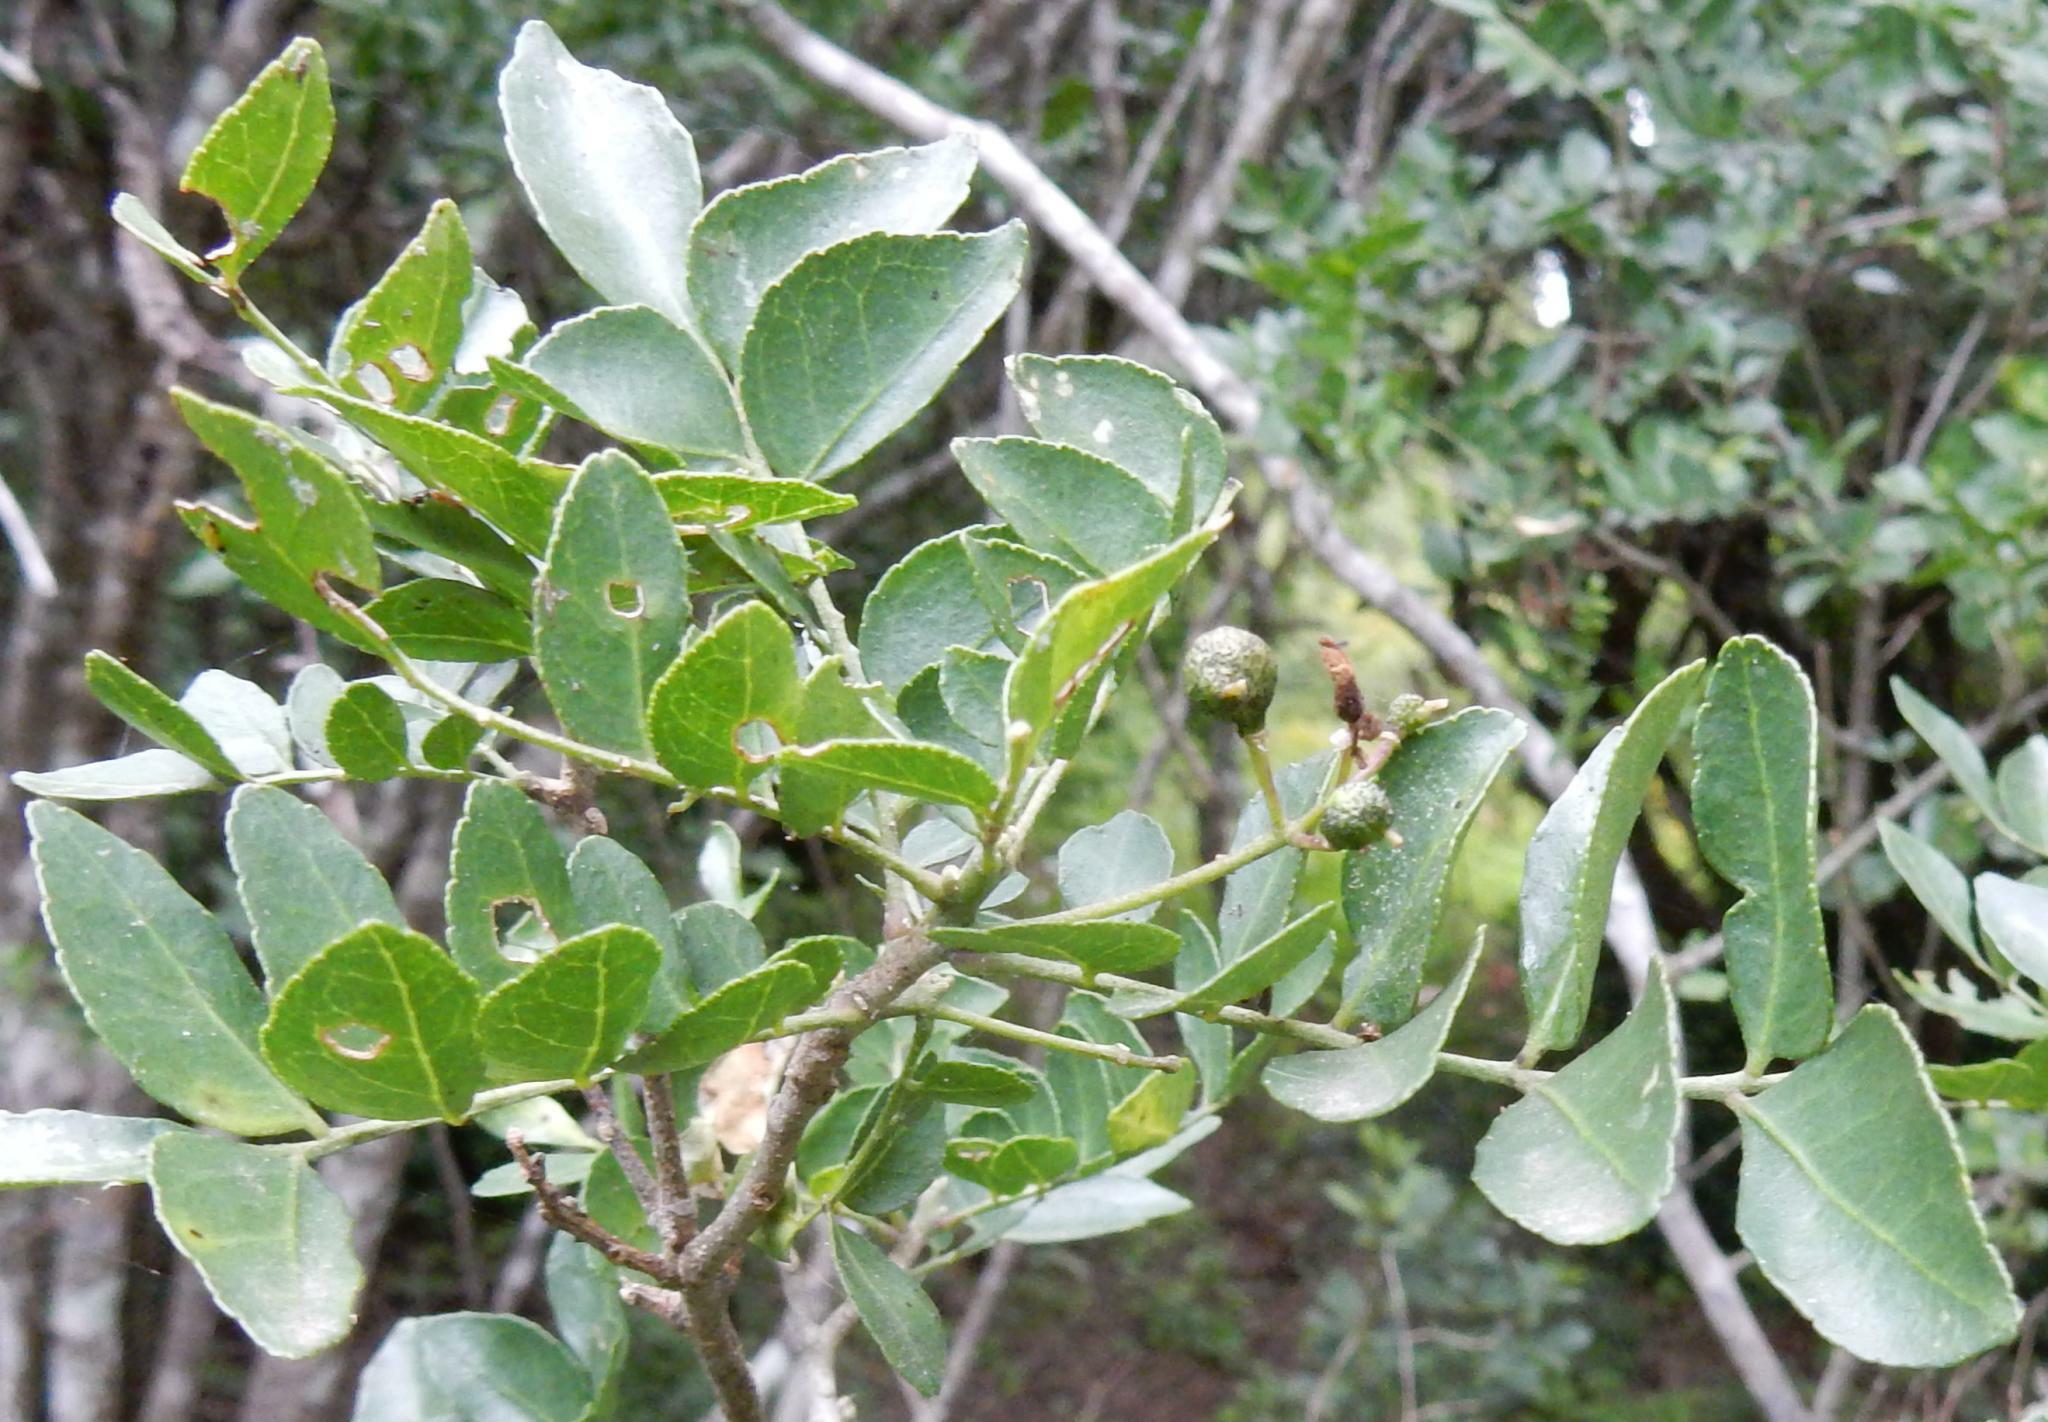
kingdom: Plantae
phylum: Tracheophyta
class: Magnoliopsida
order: Sapindales
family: Rutaceae
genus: Ptaeroxylon
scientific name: Ptaeroxylon obliquum
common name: Sneezewood
